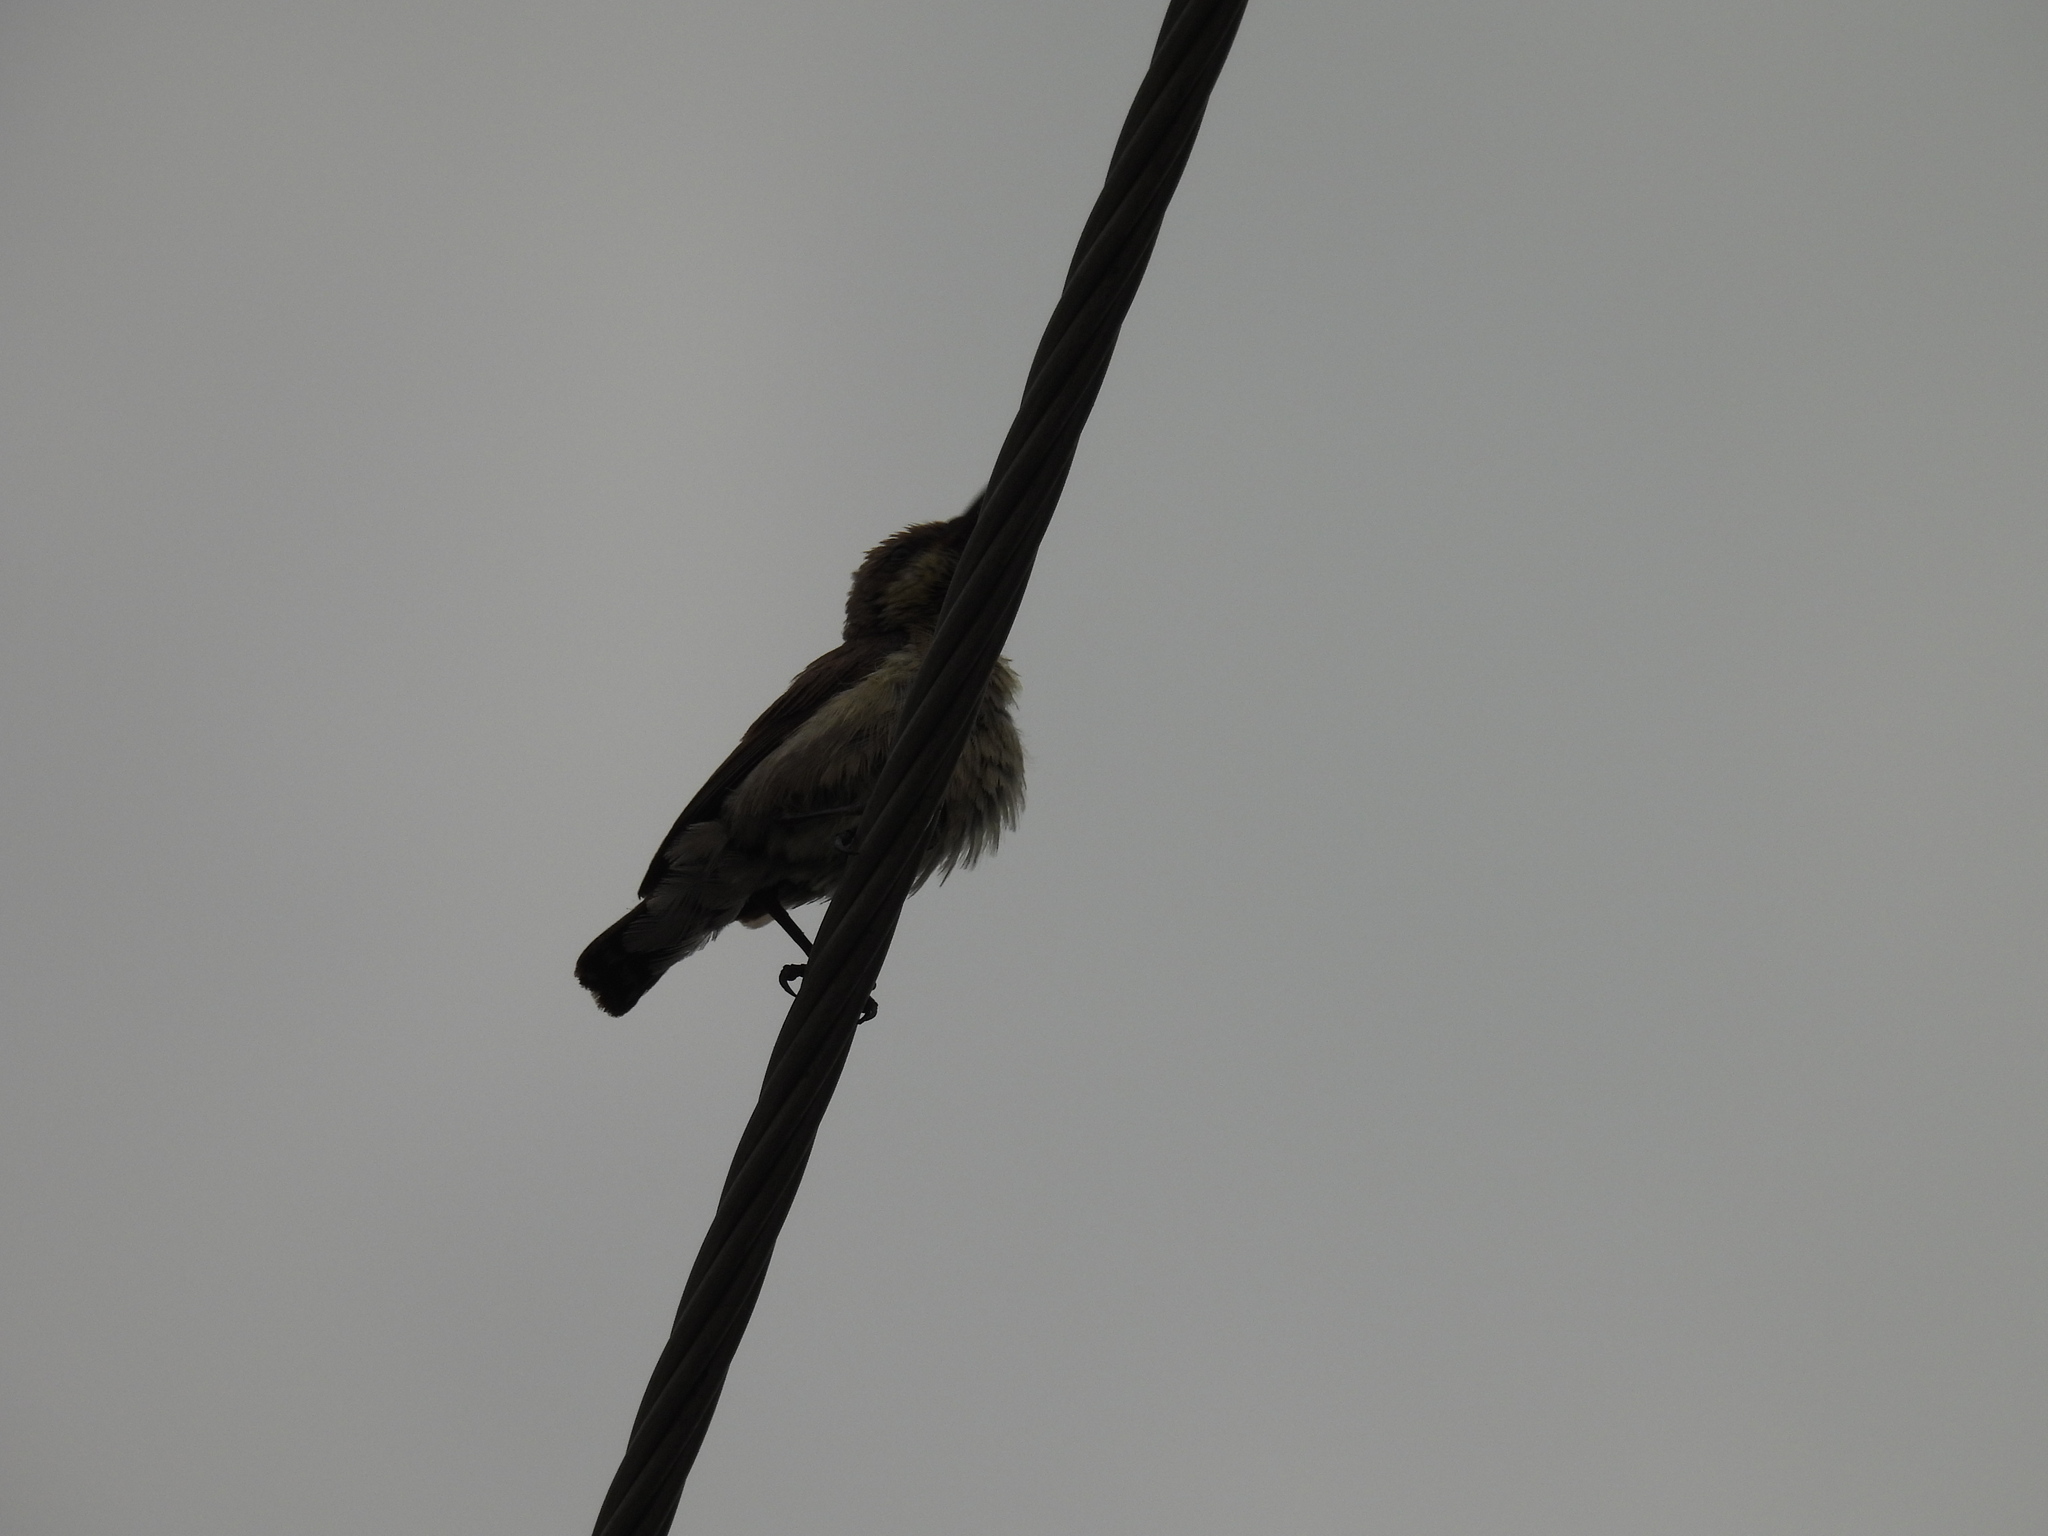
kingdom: Animalia
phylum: Chordata
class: Aves
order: Passeriformes
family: Nectariniidae
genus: Cinnyris
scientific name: Cinnyris asiaticus
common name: Purple sunbird
